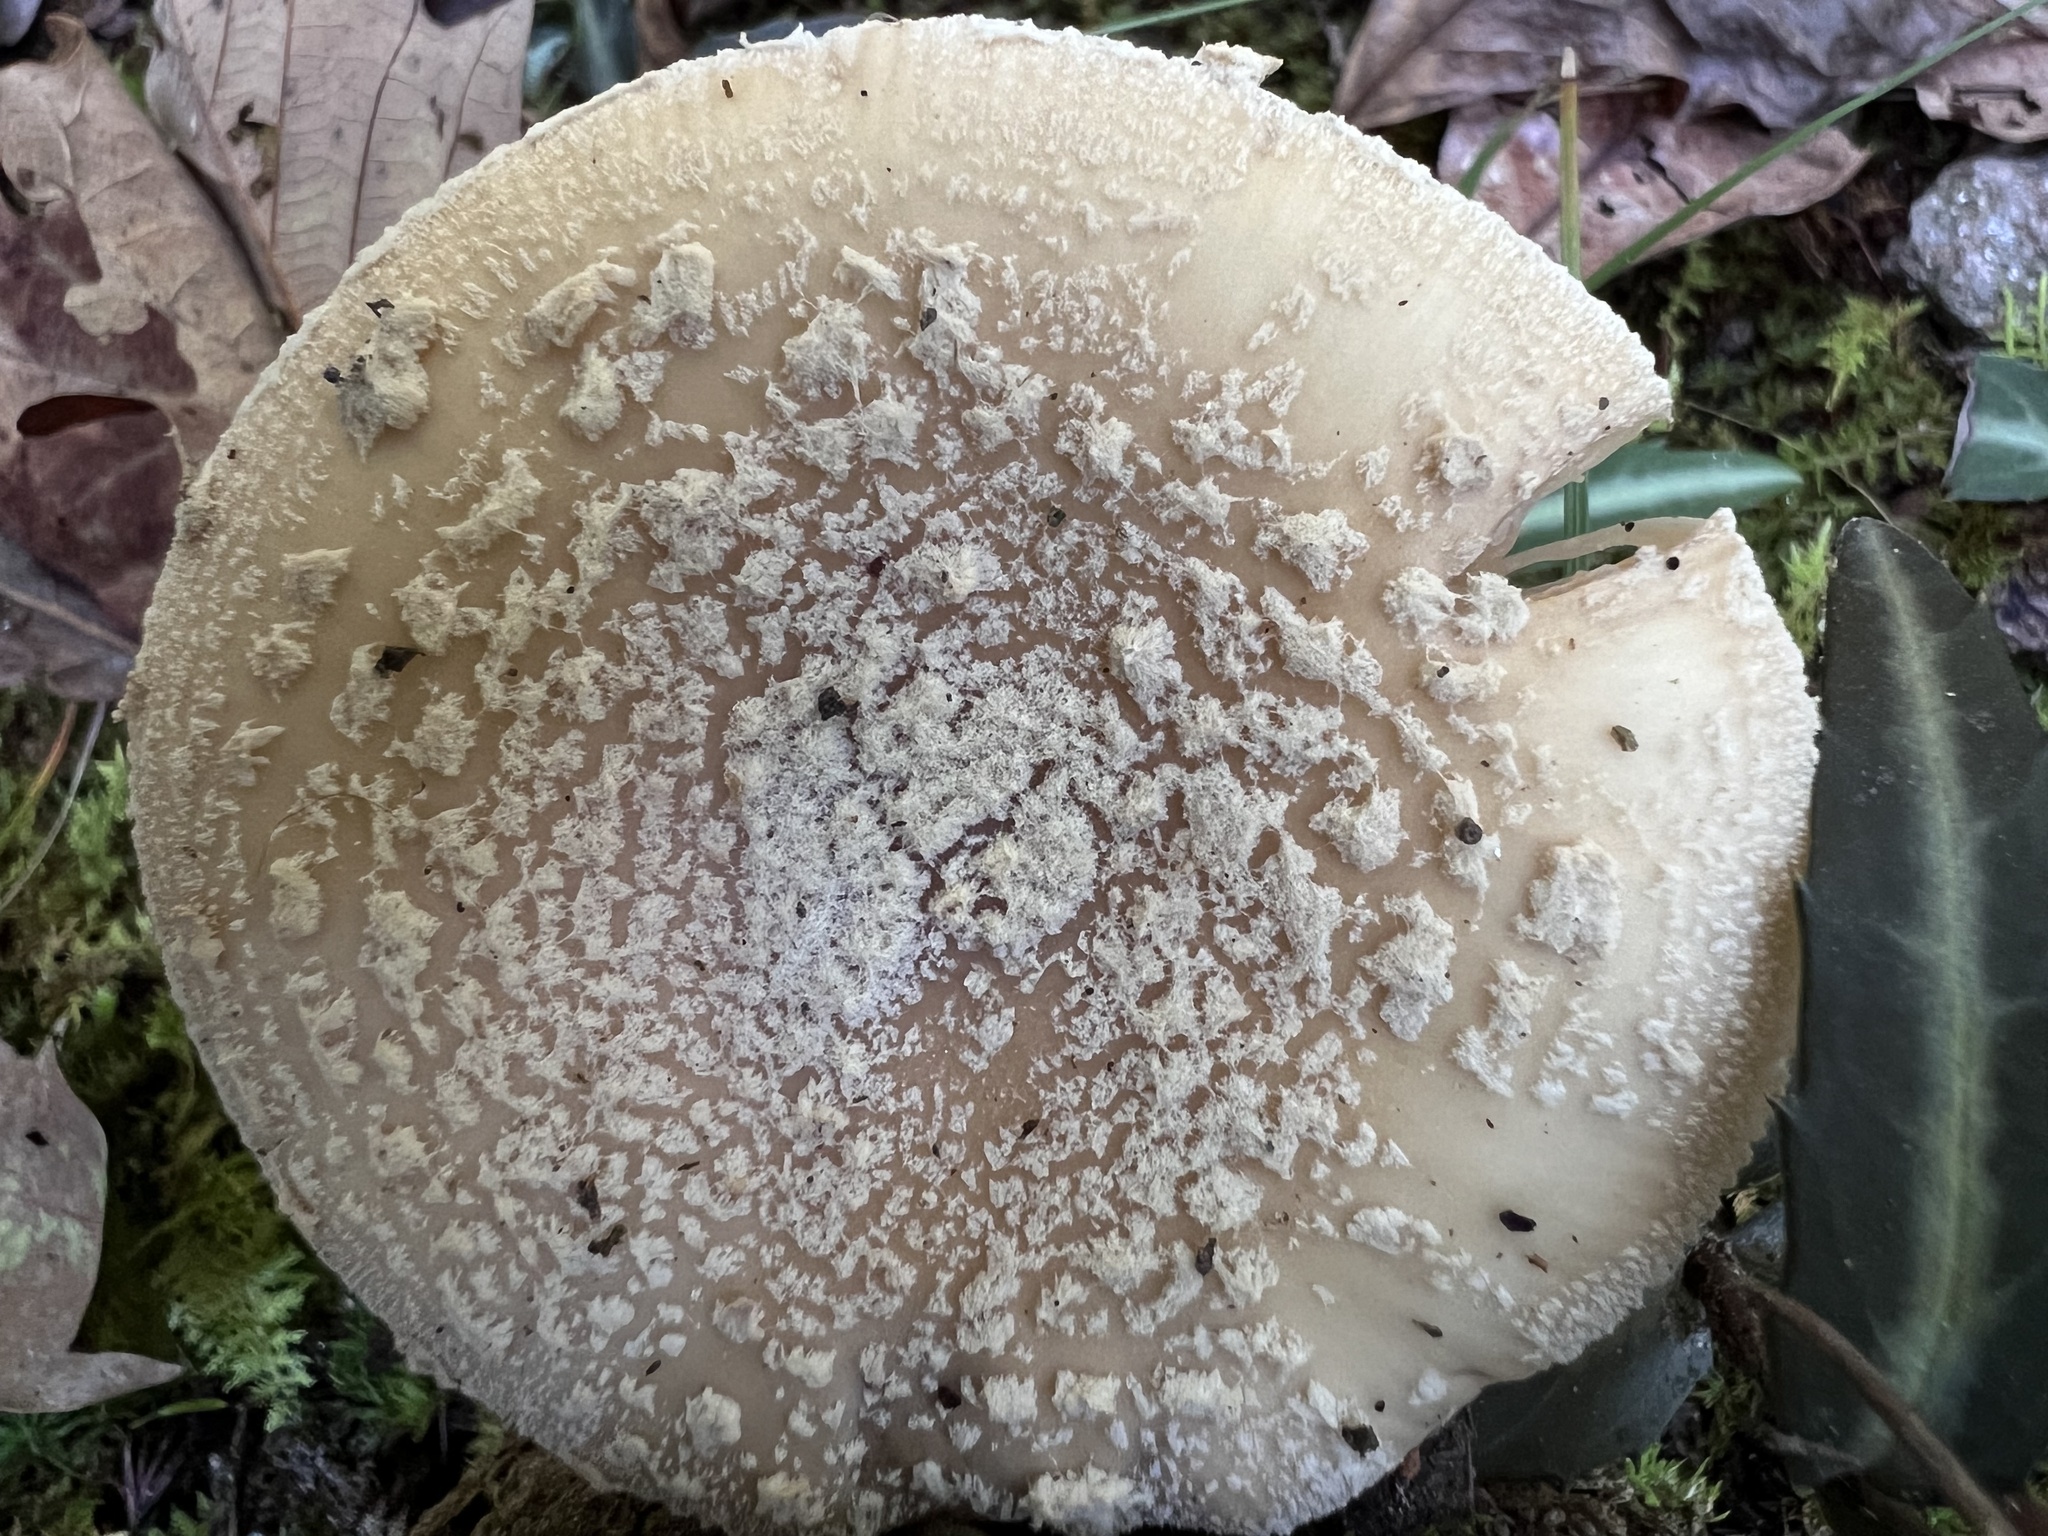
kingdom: Fungi
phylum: Basidiomycota
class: Agaricomycetes
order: Agaricales
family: Amanitaceae
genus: Amanita
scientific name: Amanita crenulata
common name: Poison champagne amanita
